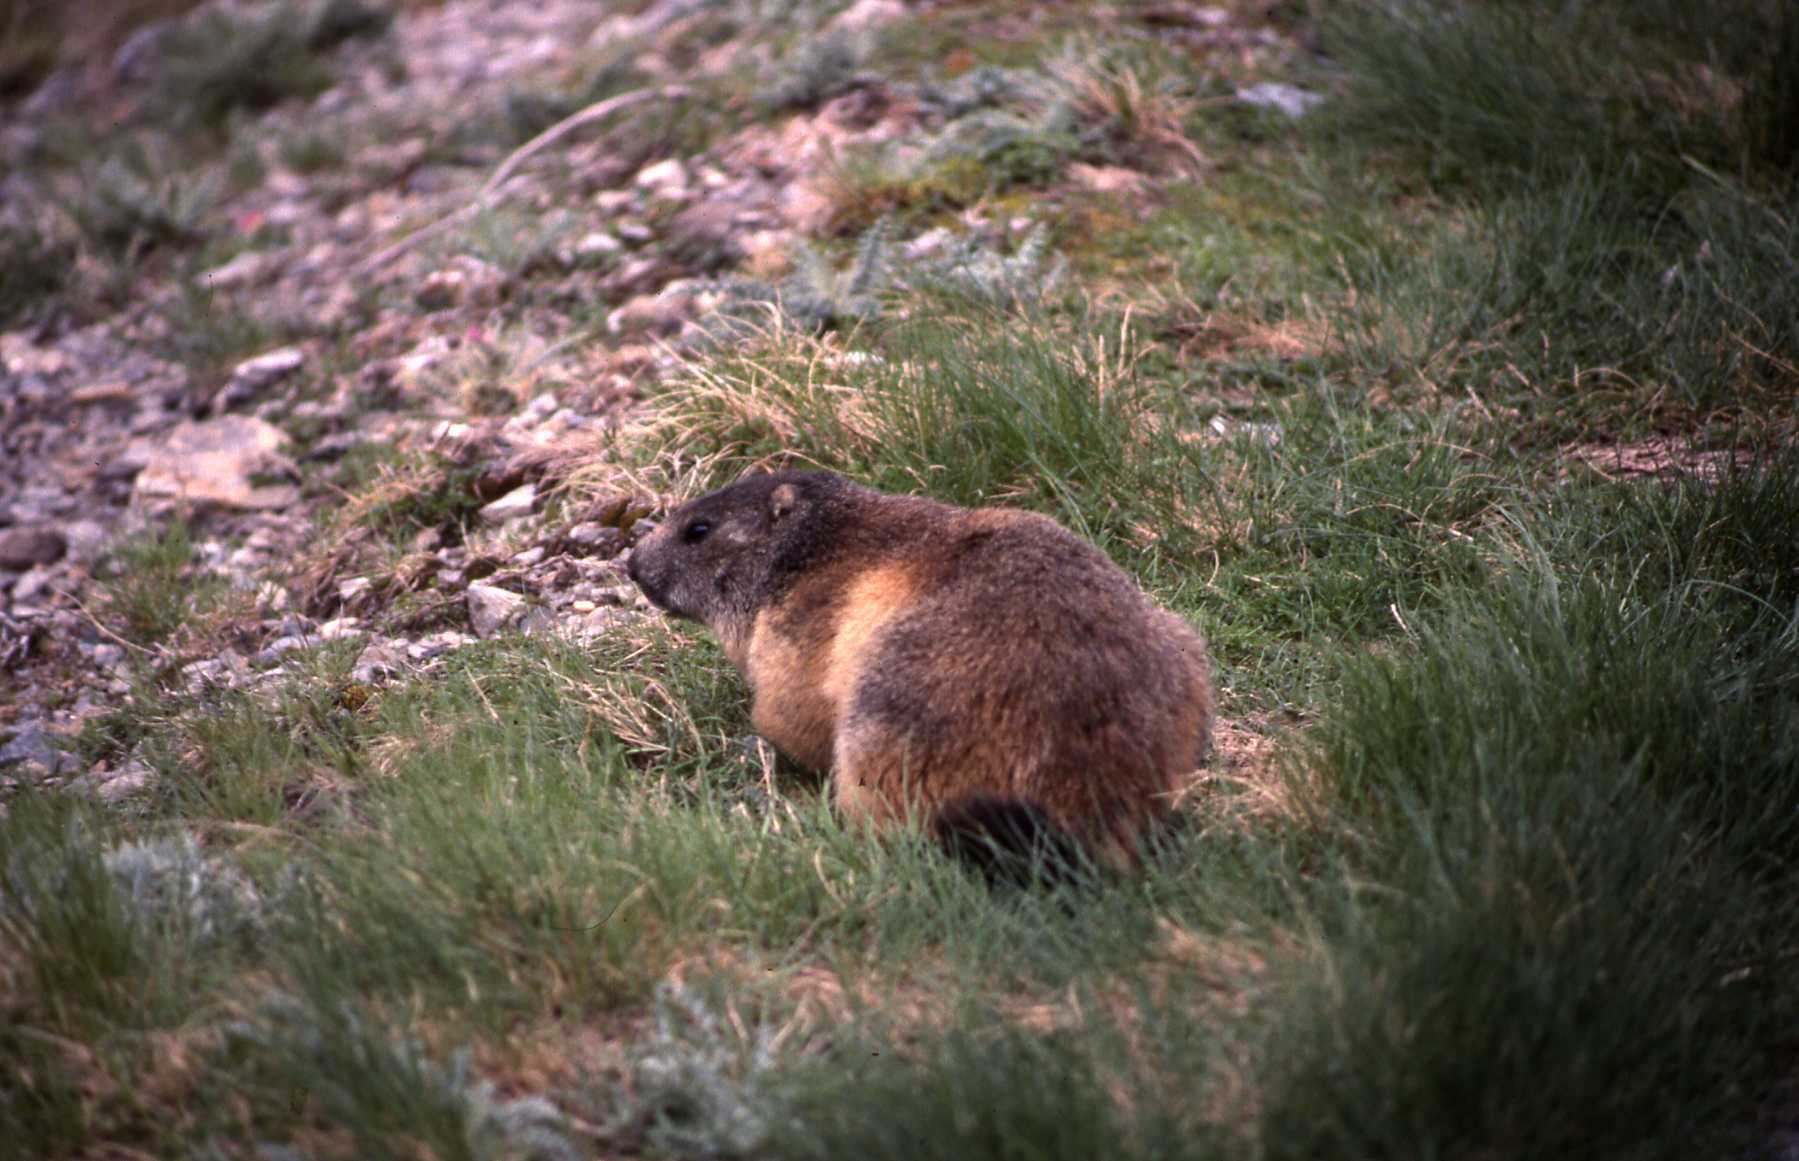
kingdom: Animalia
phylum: Chordata
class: Mammalia
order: Rodentia
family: Sciuridae
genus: Marmota
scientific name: Marmota marmota
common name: Alpine marmot
